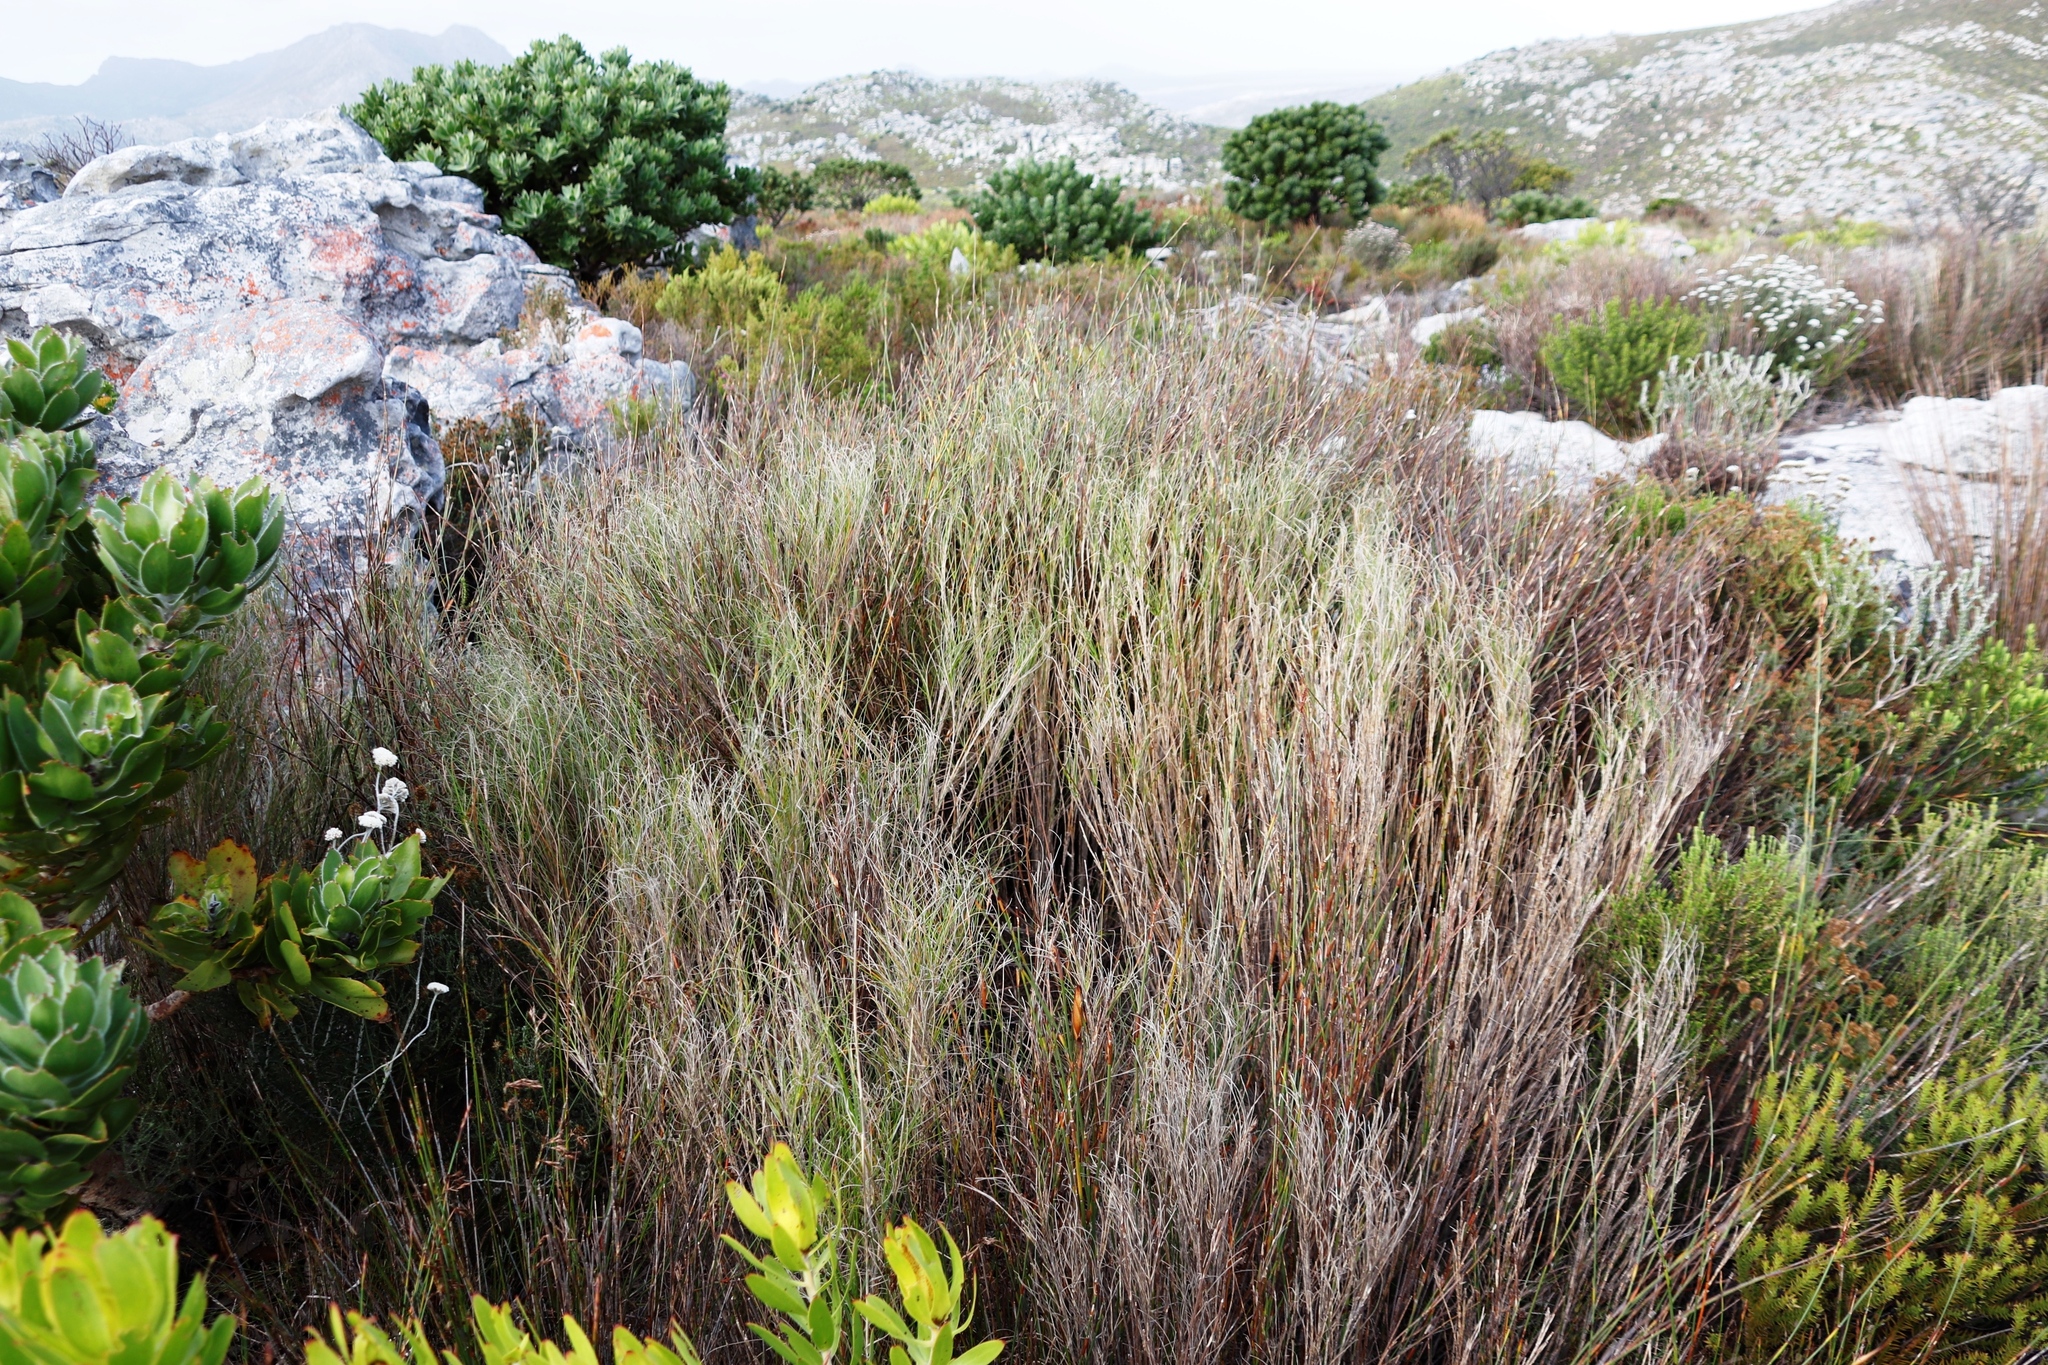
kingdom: Plantae
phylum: Tracheophyta
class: Liliopsida
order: Poales
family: Poaceae
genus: Pseudopentameris
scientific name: Pseudopentameris macrantha
